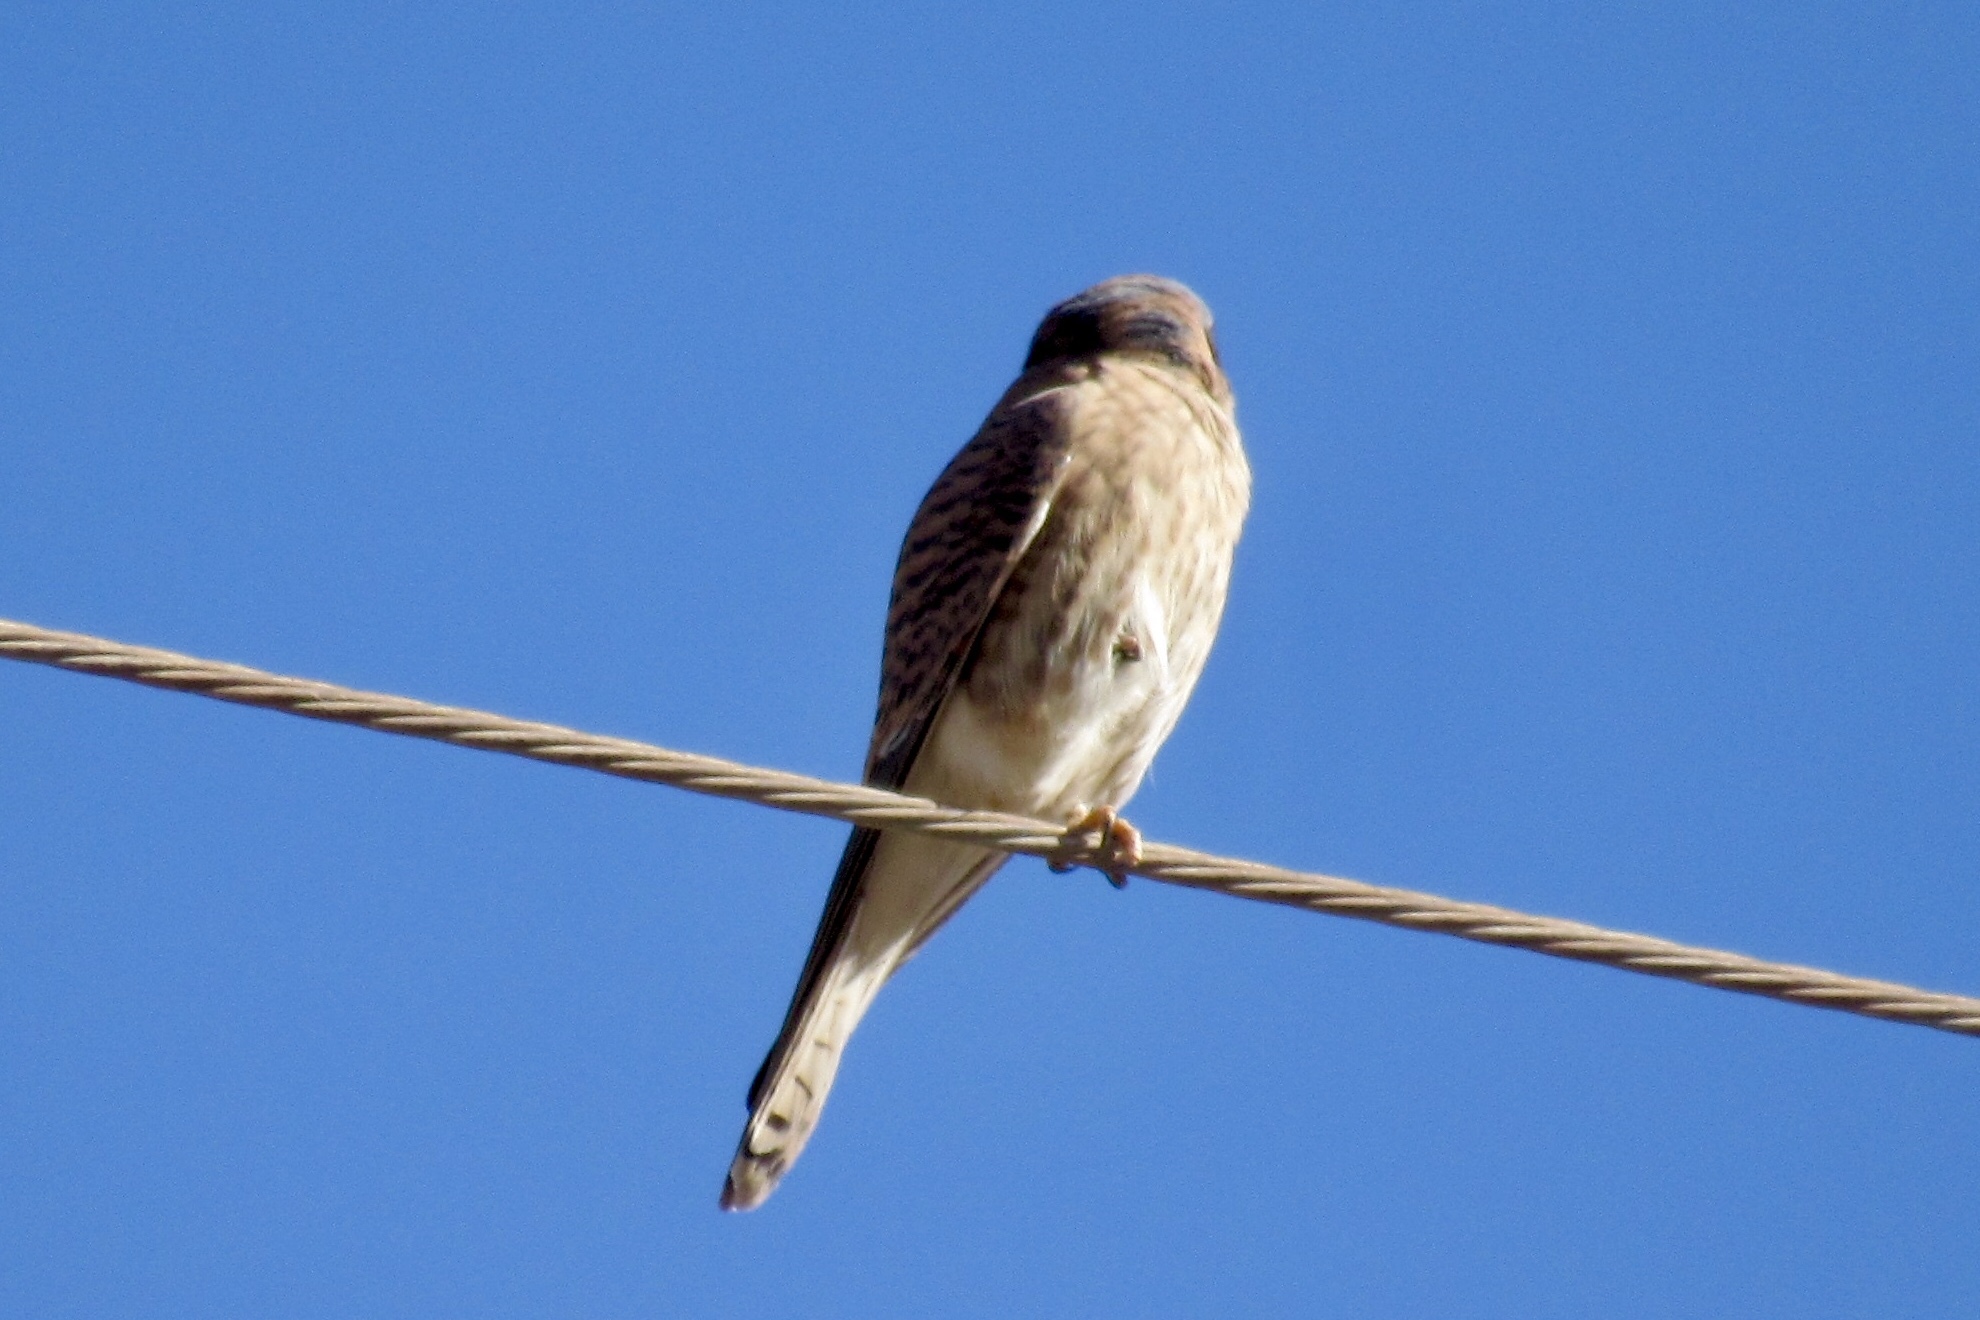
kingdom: Animalia
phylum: Chordata
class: Aves
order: Falconiformes
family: Falconidae
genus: Falco
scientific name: Falco sparverius
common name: American kestrel
